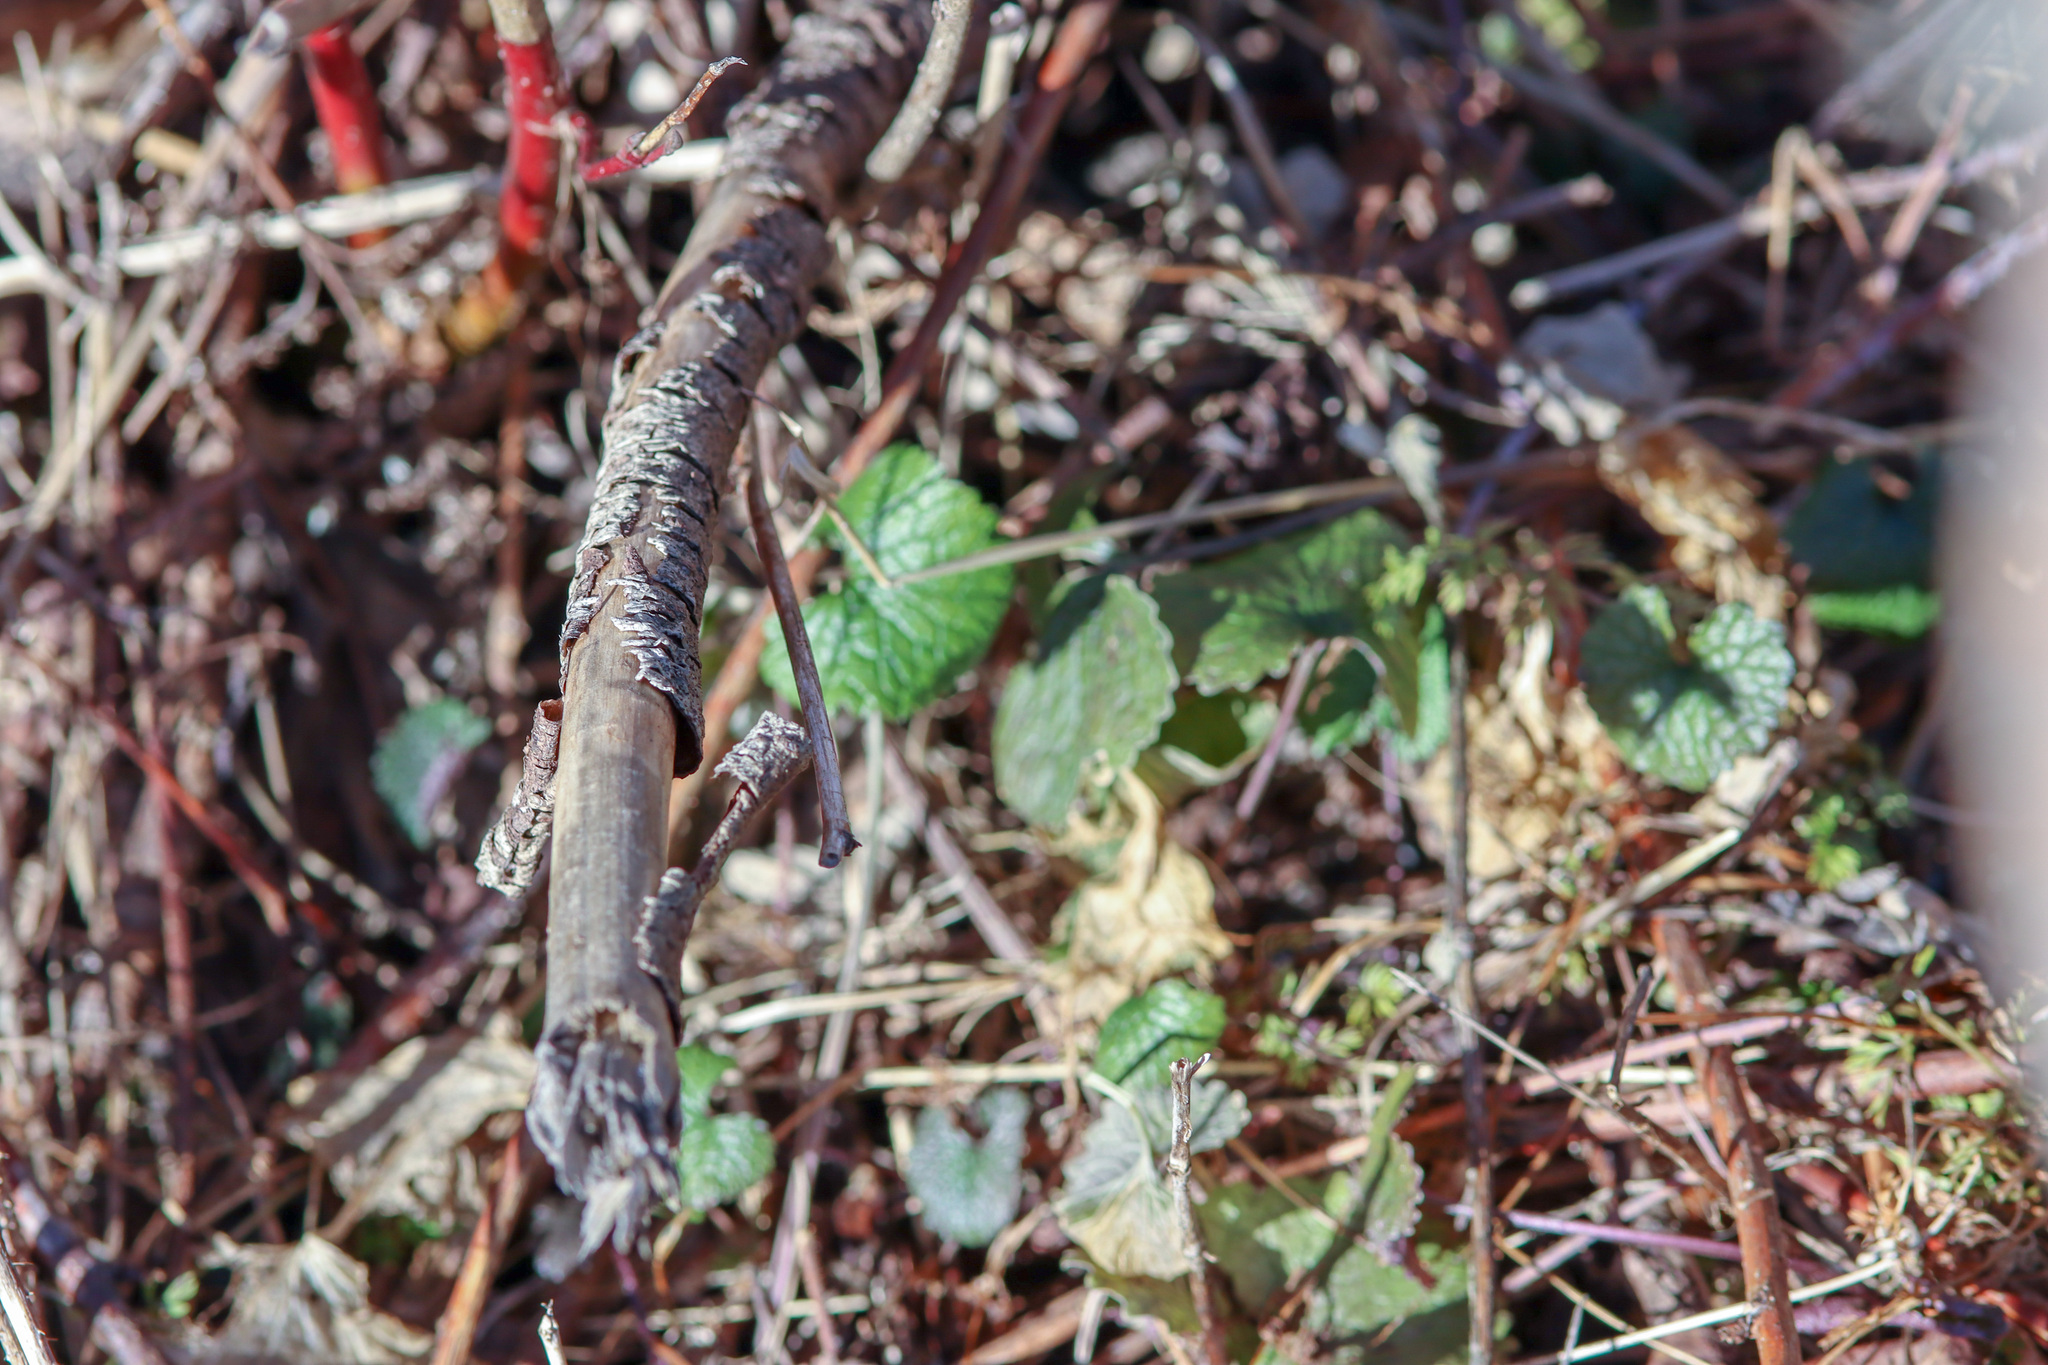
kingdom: Plantae
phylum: Tracheophyta
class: Magnoliopsida
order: Brassicales
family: Brassicaceae
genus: Alliaria
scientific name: Alliaria petiolata
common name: Garlic mustard
